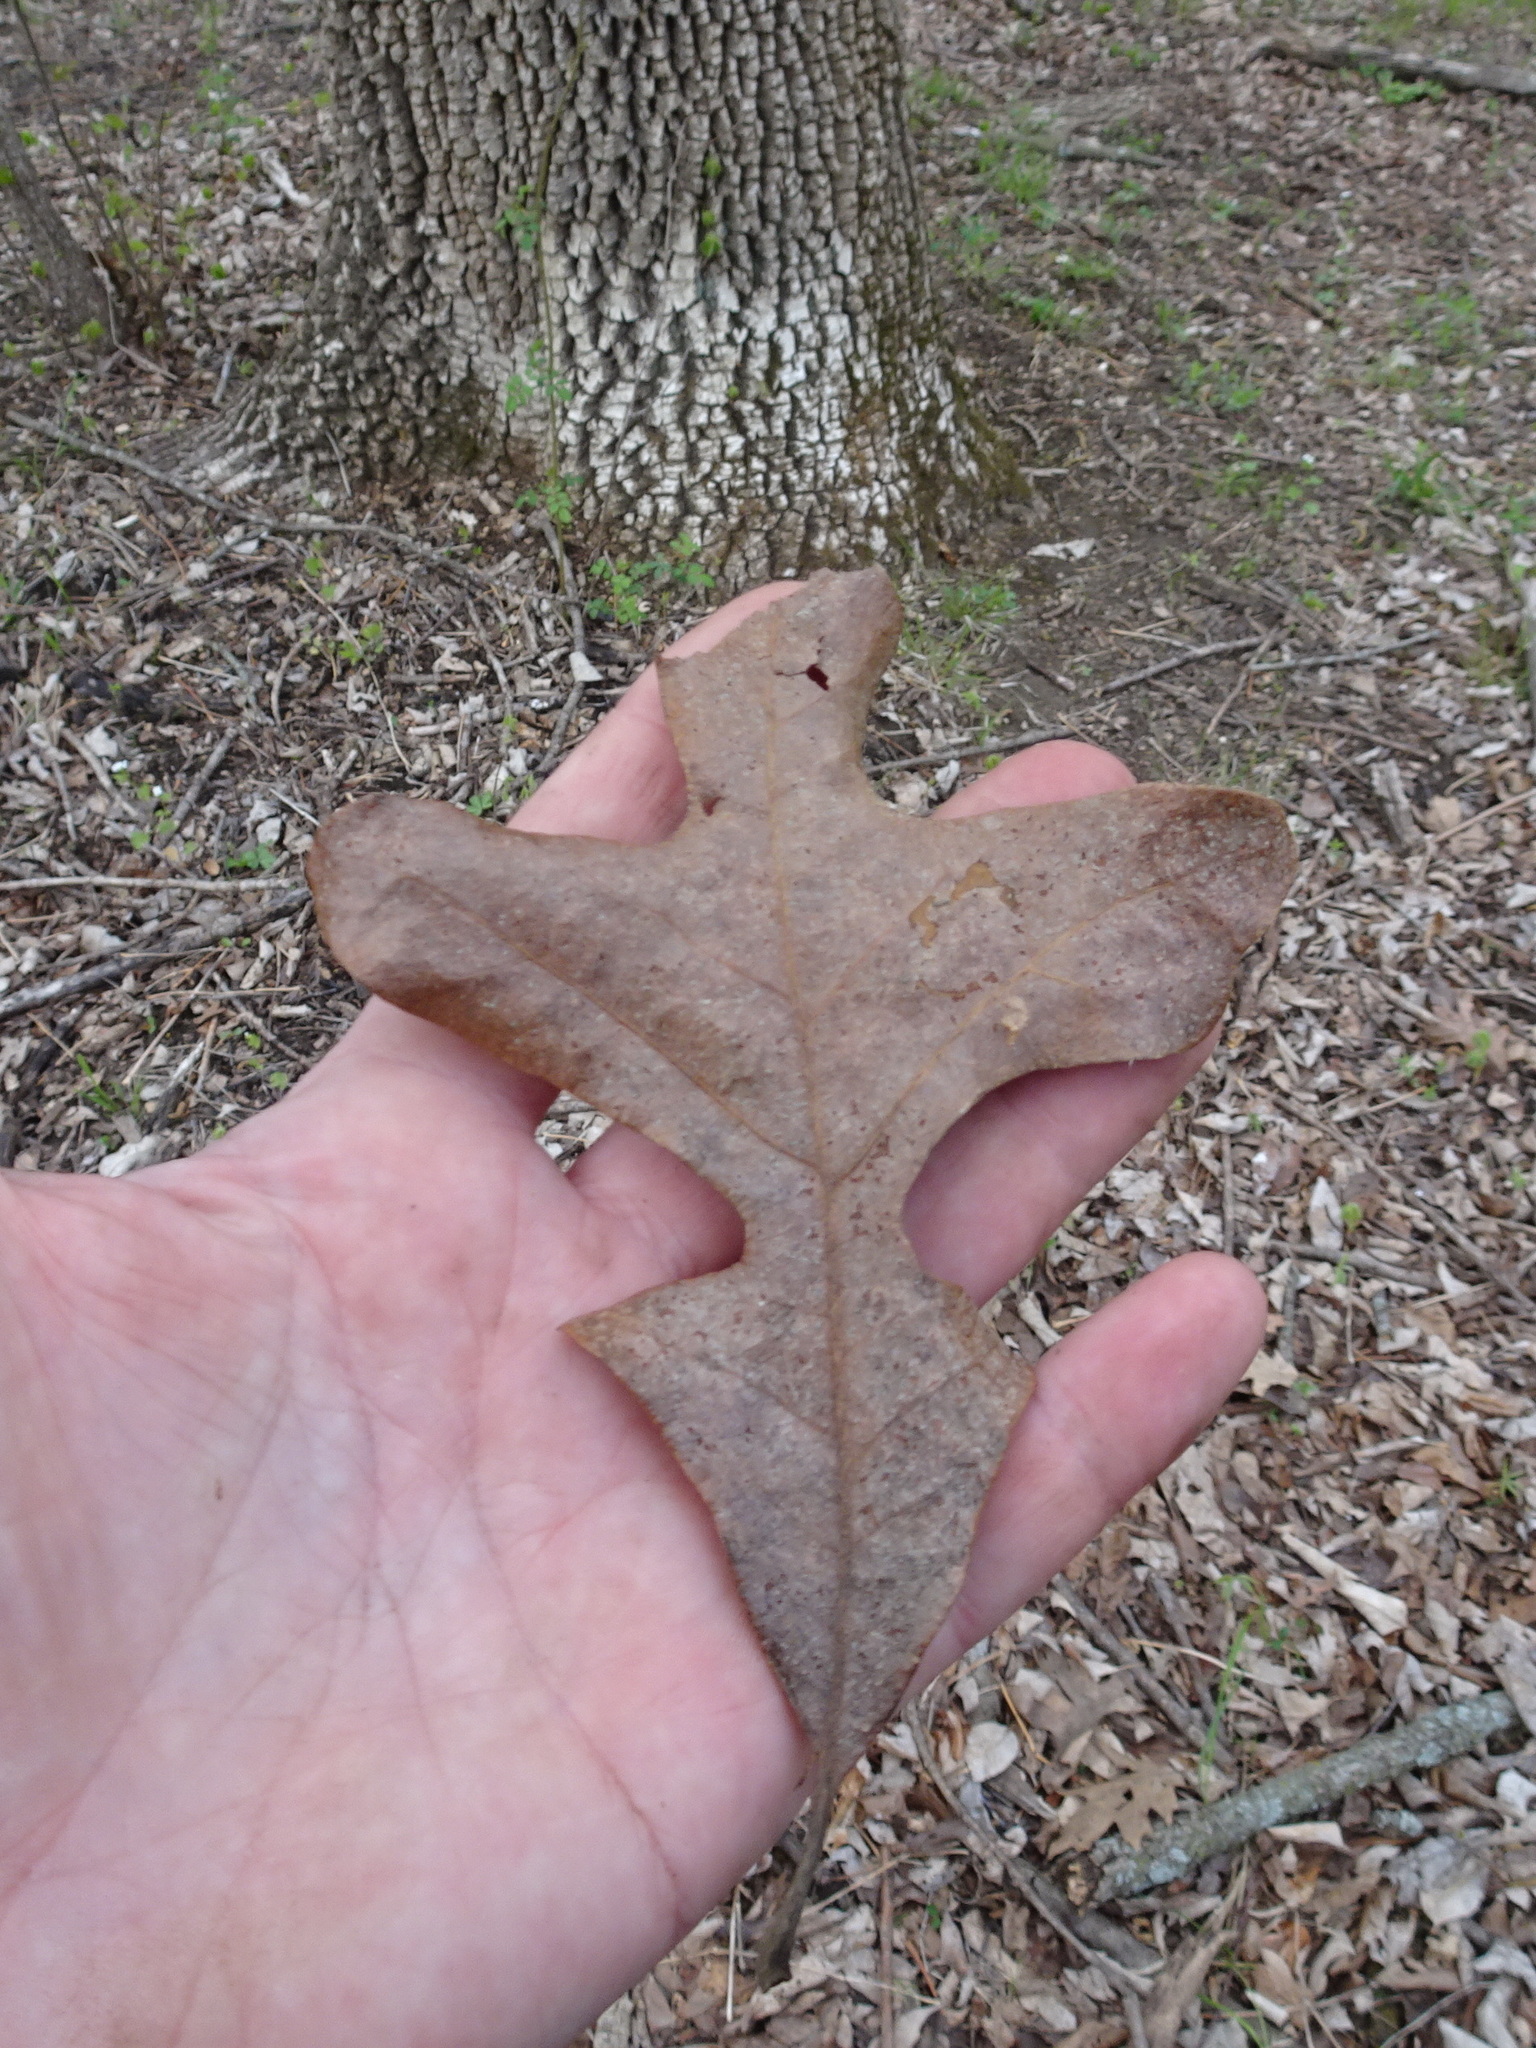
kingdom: Plantae
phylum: Tracheophyta
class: Magnoliopsida
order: Fagales
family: Fagaceae
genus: Quercus
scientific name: Quercus stellata
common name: Post oak
